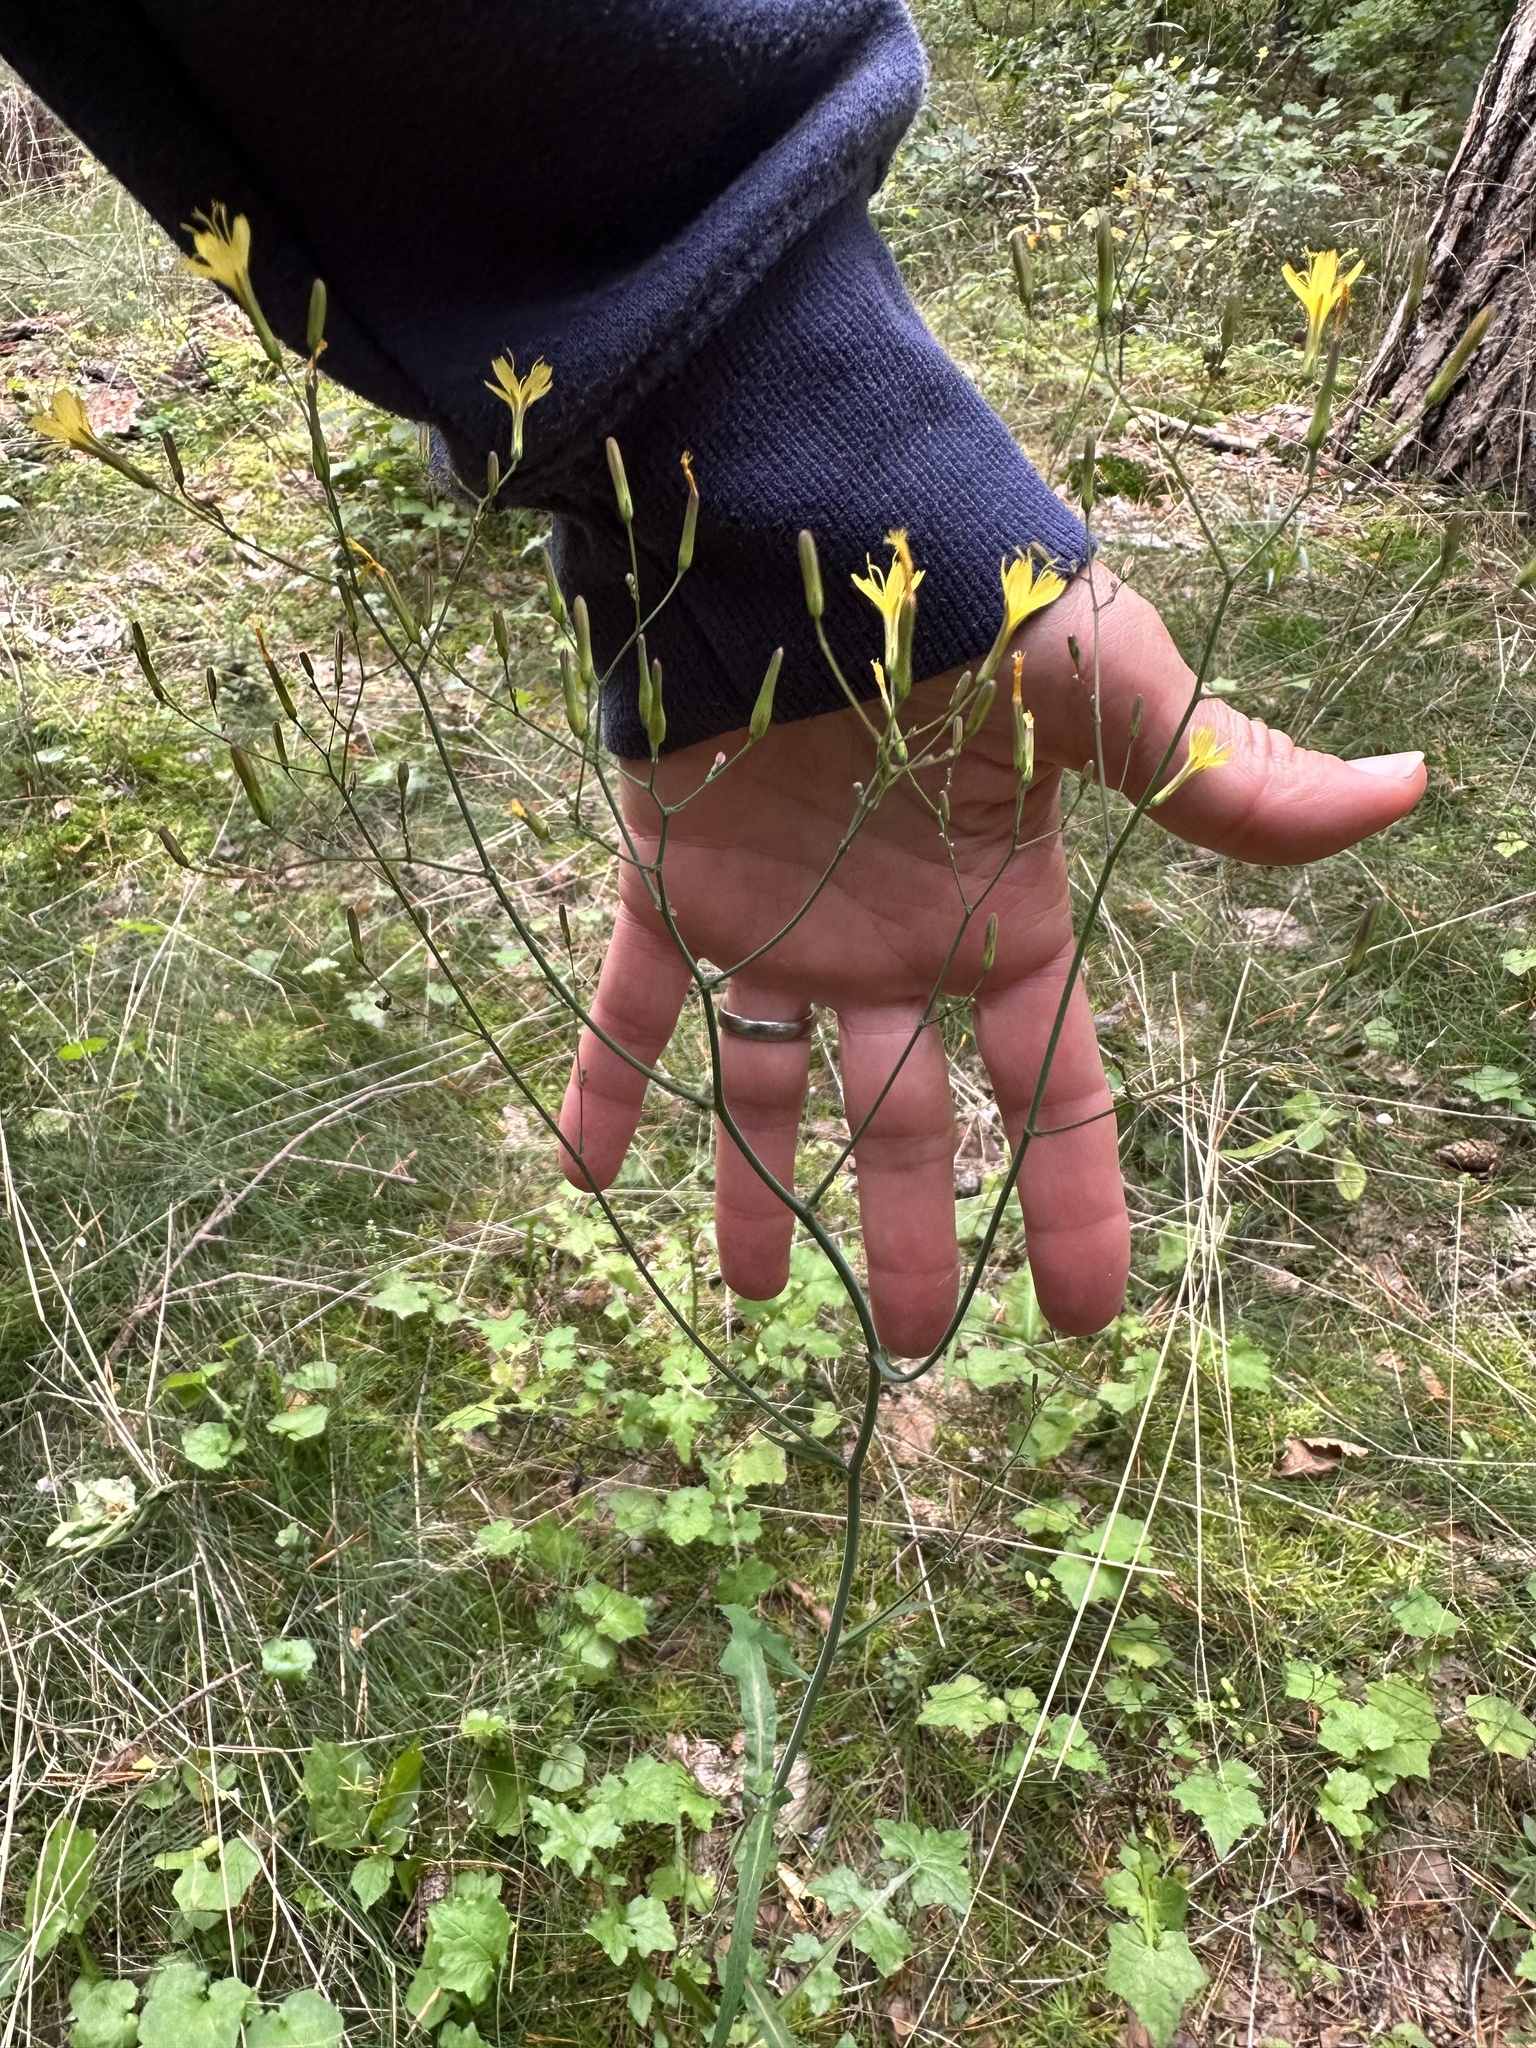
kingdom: Plantae
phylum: Tracheophyta
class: Magnoliopsida
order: Asterales
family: Asteraceae
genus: Mycelis
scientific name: Mycelis muralis
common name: Wall lettuce
